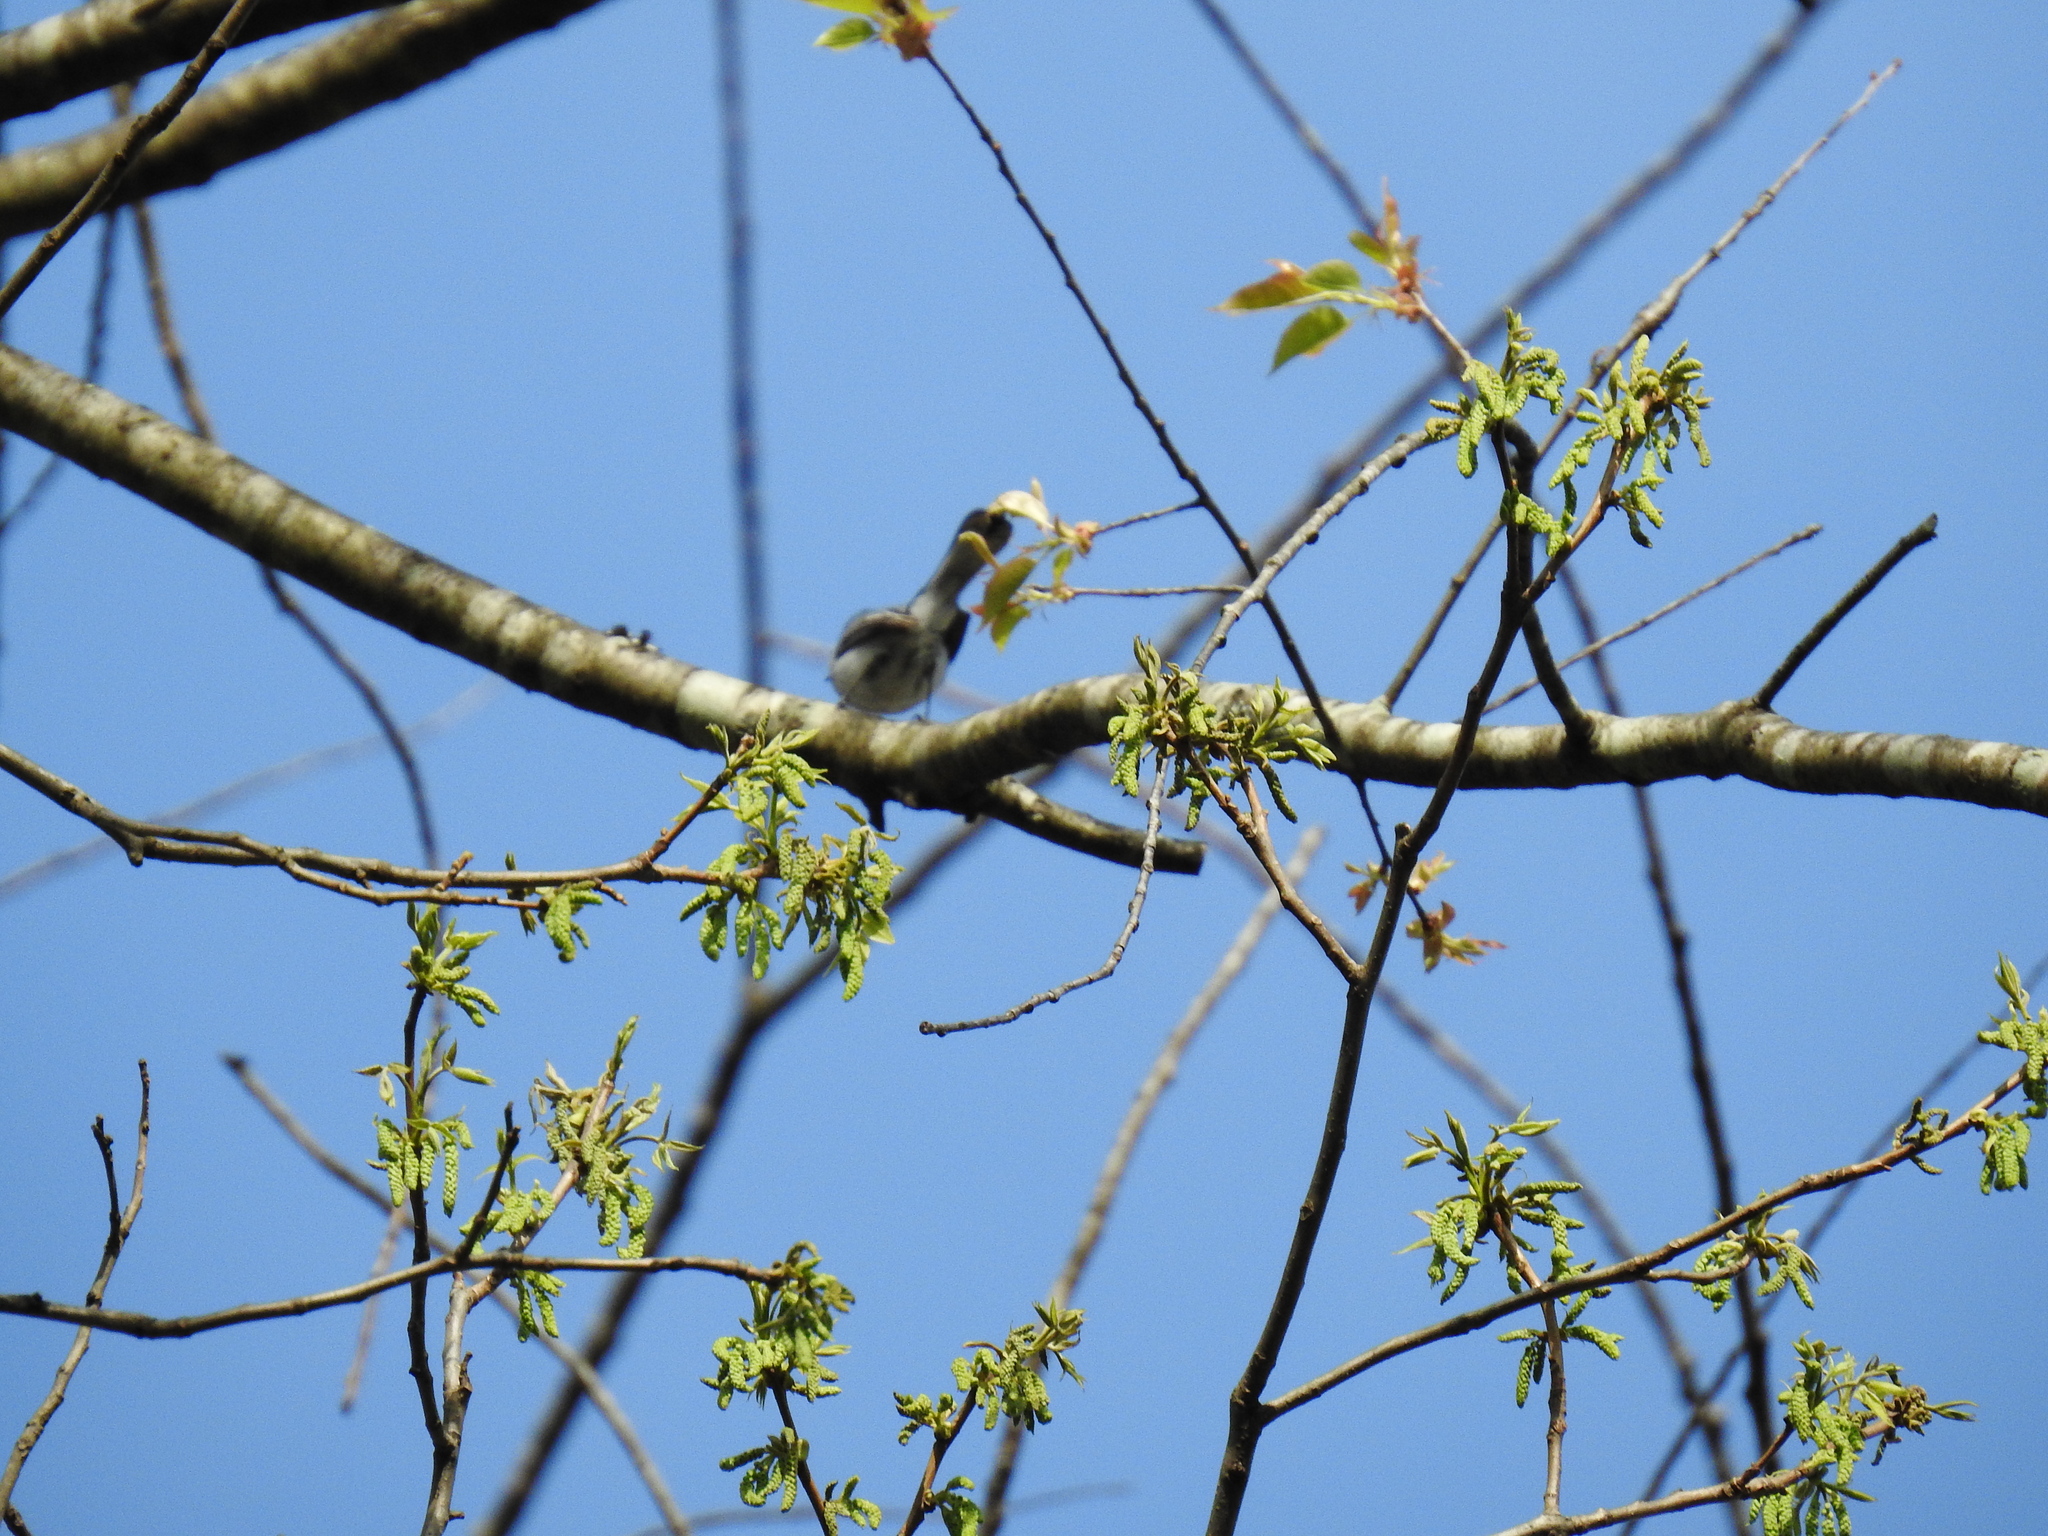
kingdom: Animalia
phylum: Chordata
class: Aves
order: Passeriformes
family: Polioptilidae
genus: Polioptila
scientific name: Polioptila caerulea
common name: Blue-gray gnatcatcher
